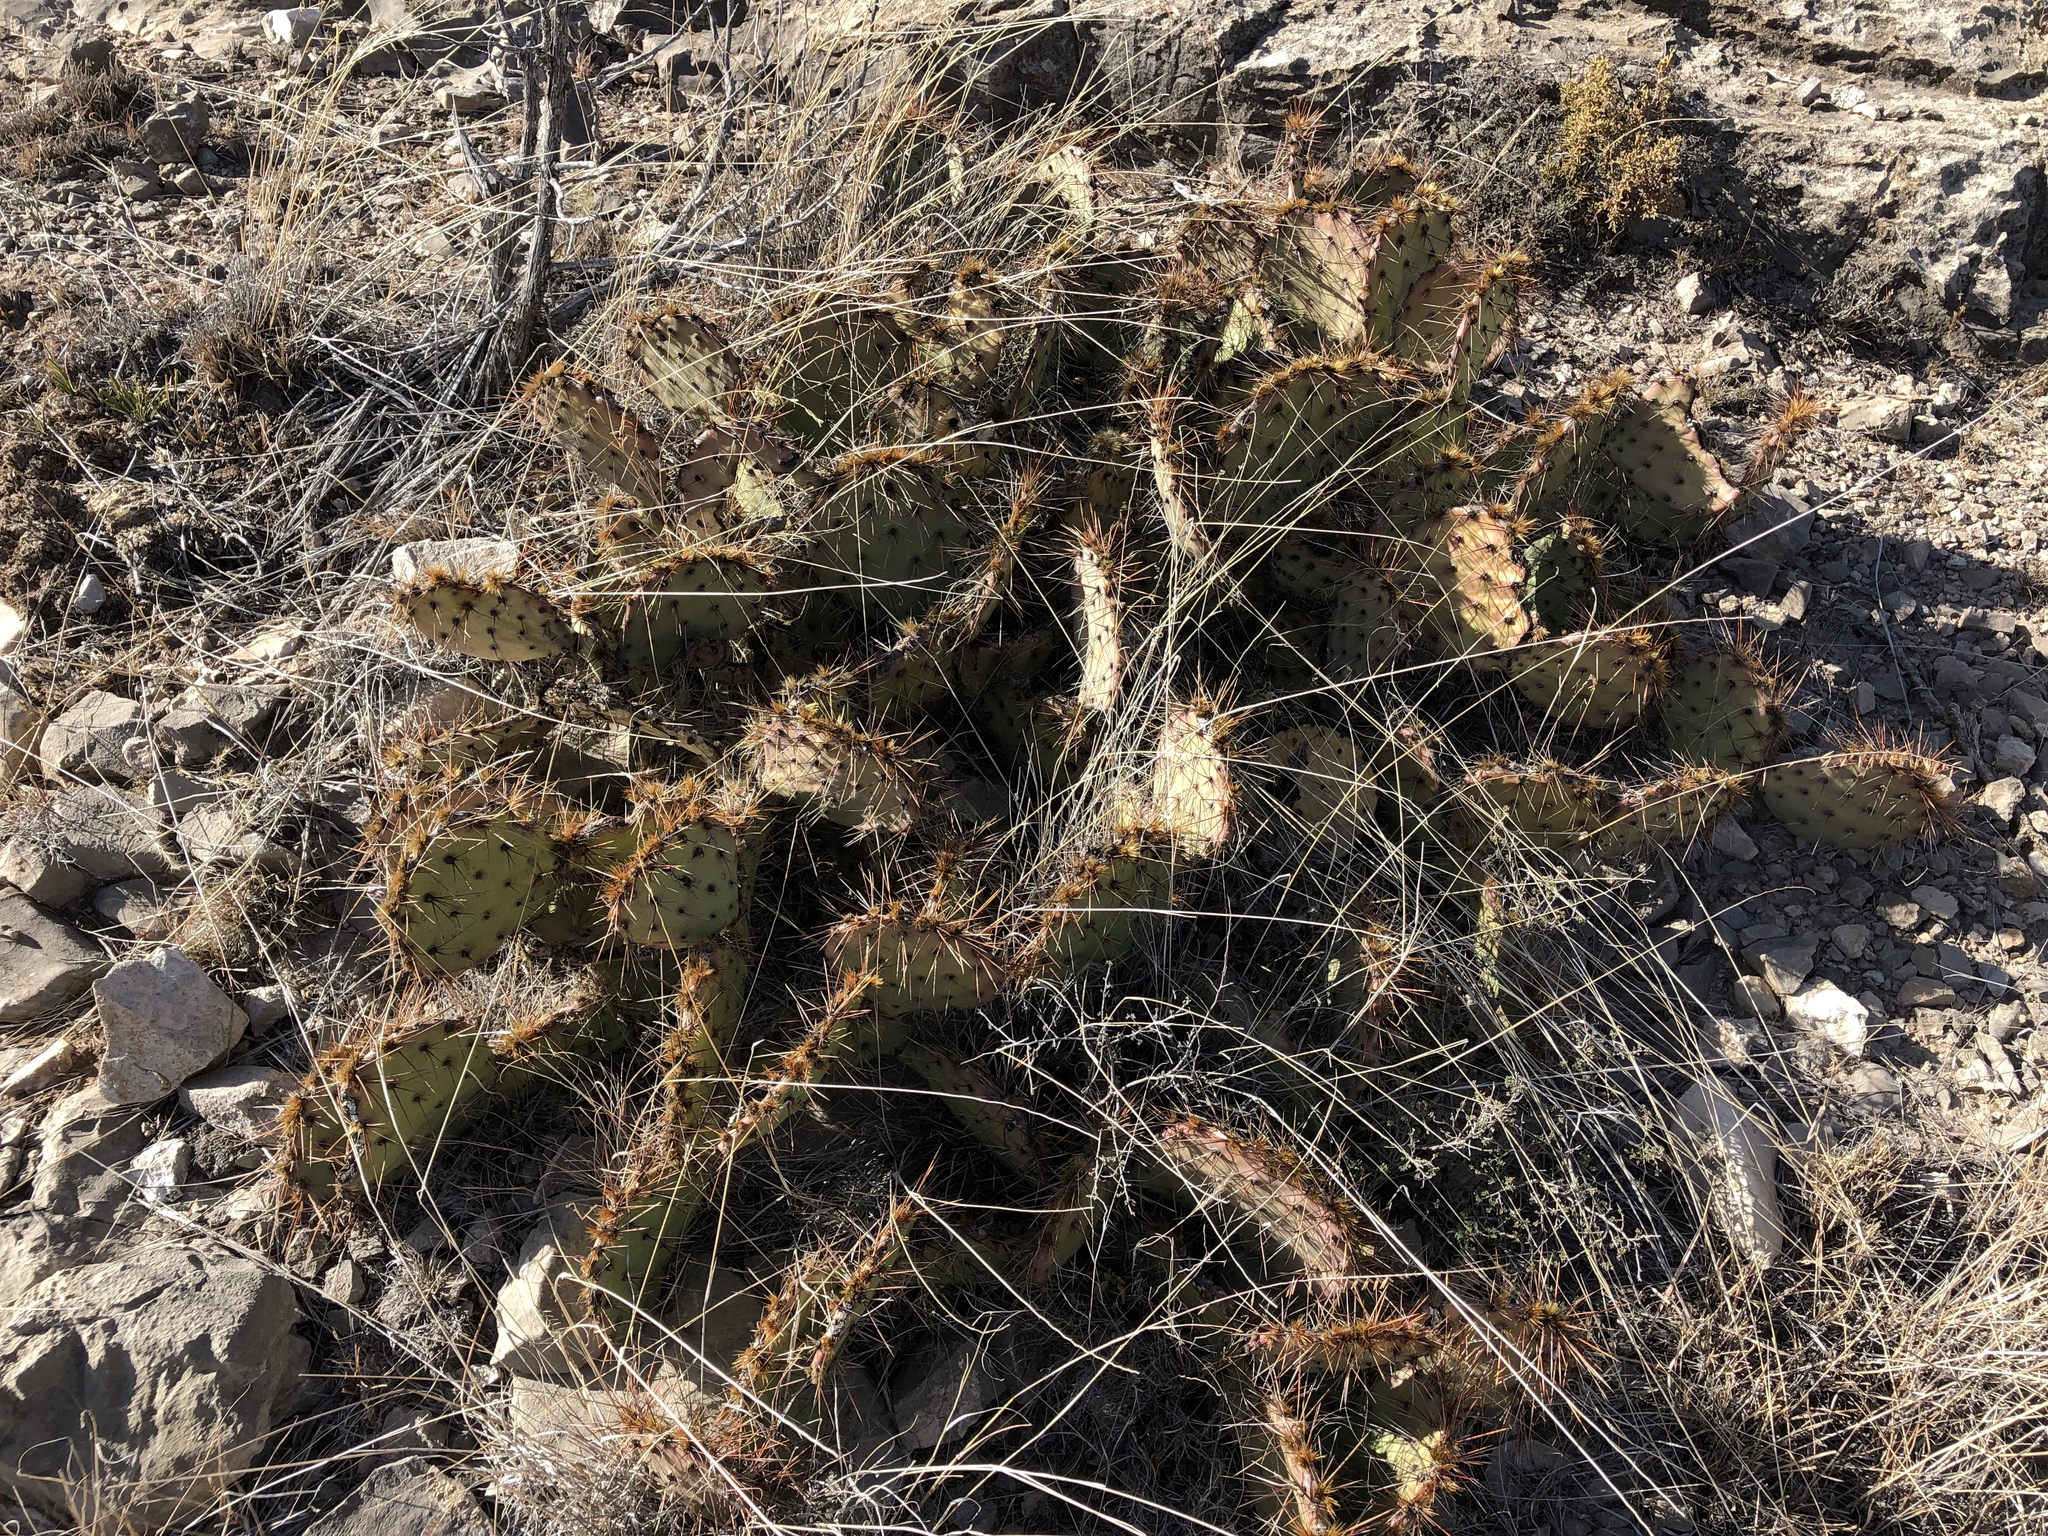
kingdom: Plantae
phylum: Tracheophyta
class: Magnoliopsida
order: Caryophyllales
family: Cactaceae
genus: Opuntia
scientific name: Opuntia phaeacantha
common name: New mexico prickly-pear
